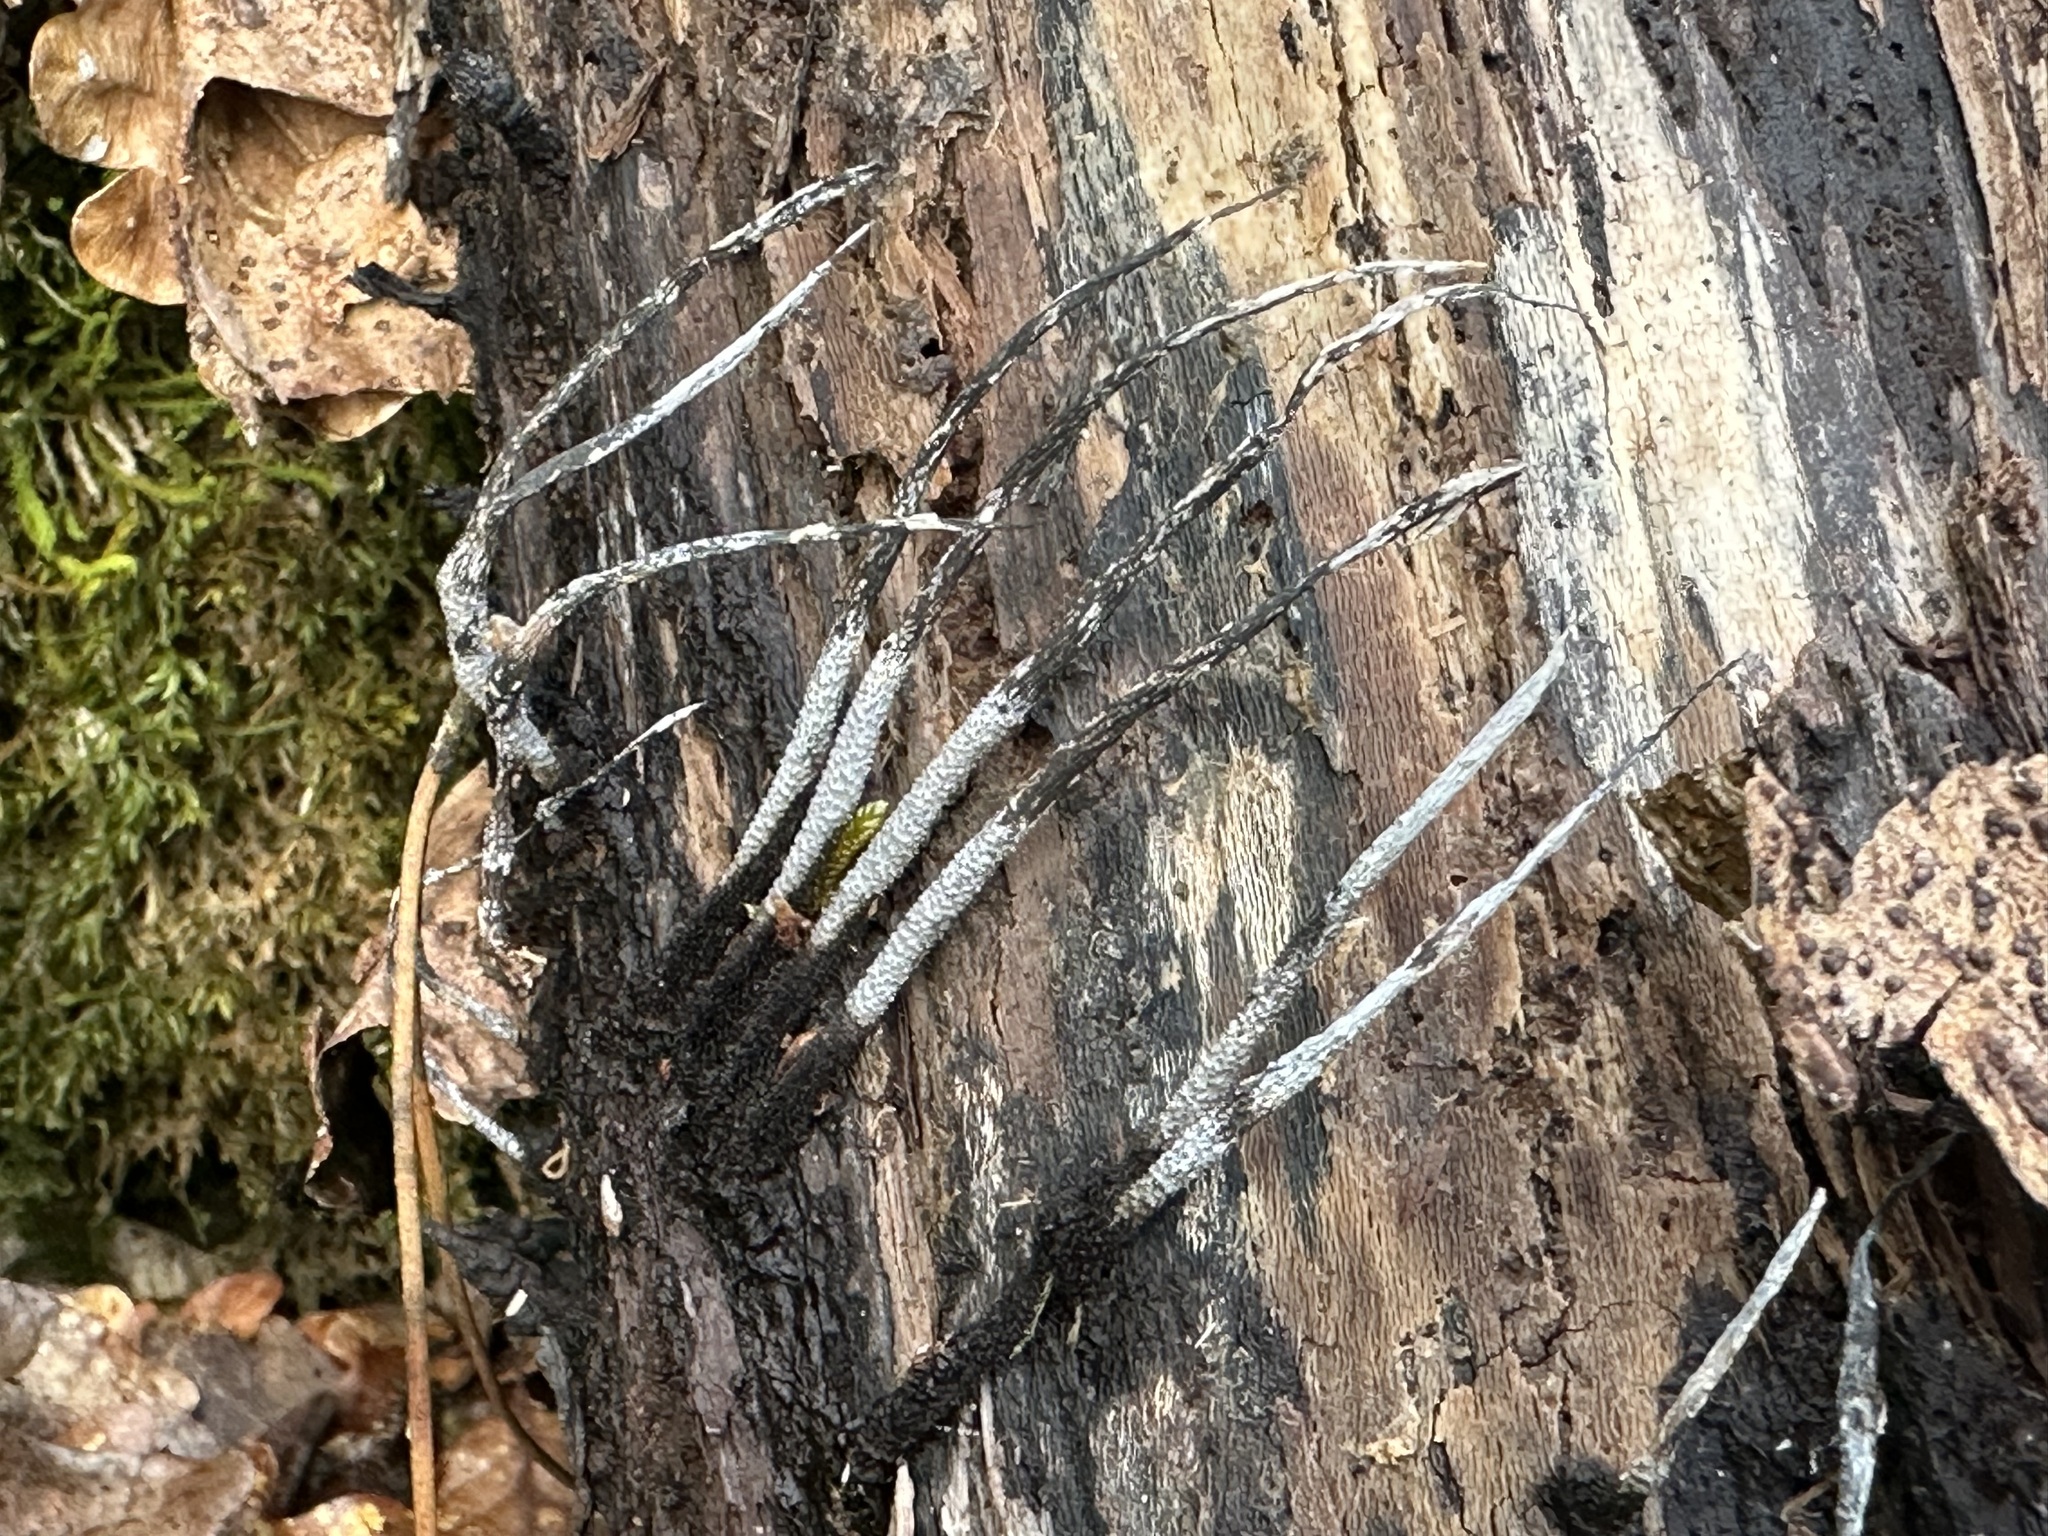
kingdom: Fungi
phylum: Ascomycota
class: Sordariomycetes
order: Xylariales
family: Xylariaceae
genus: Xylaria
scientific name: Xylaria hypoxylon
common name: Candle-snuff fungus
